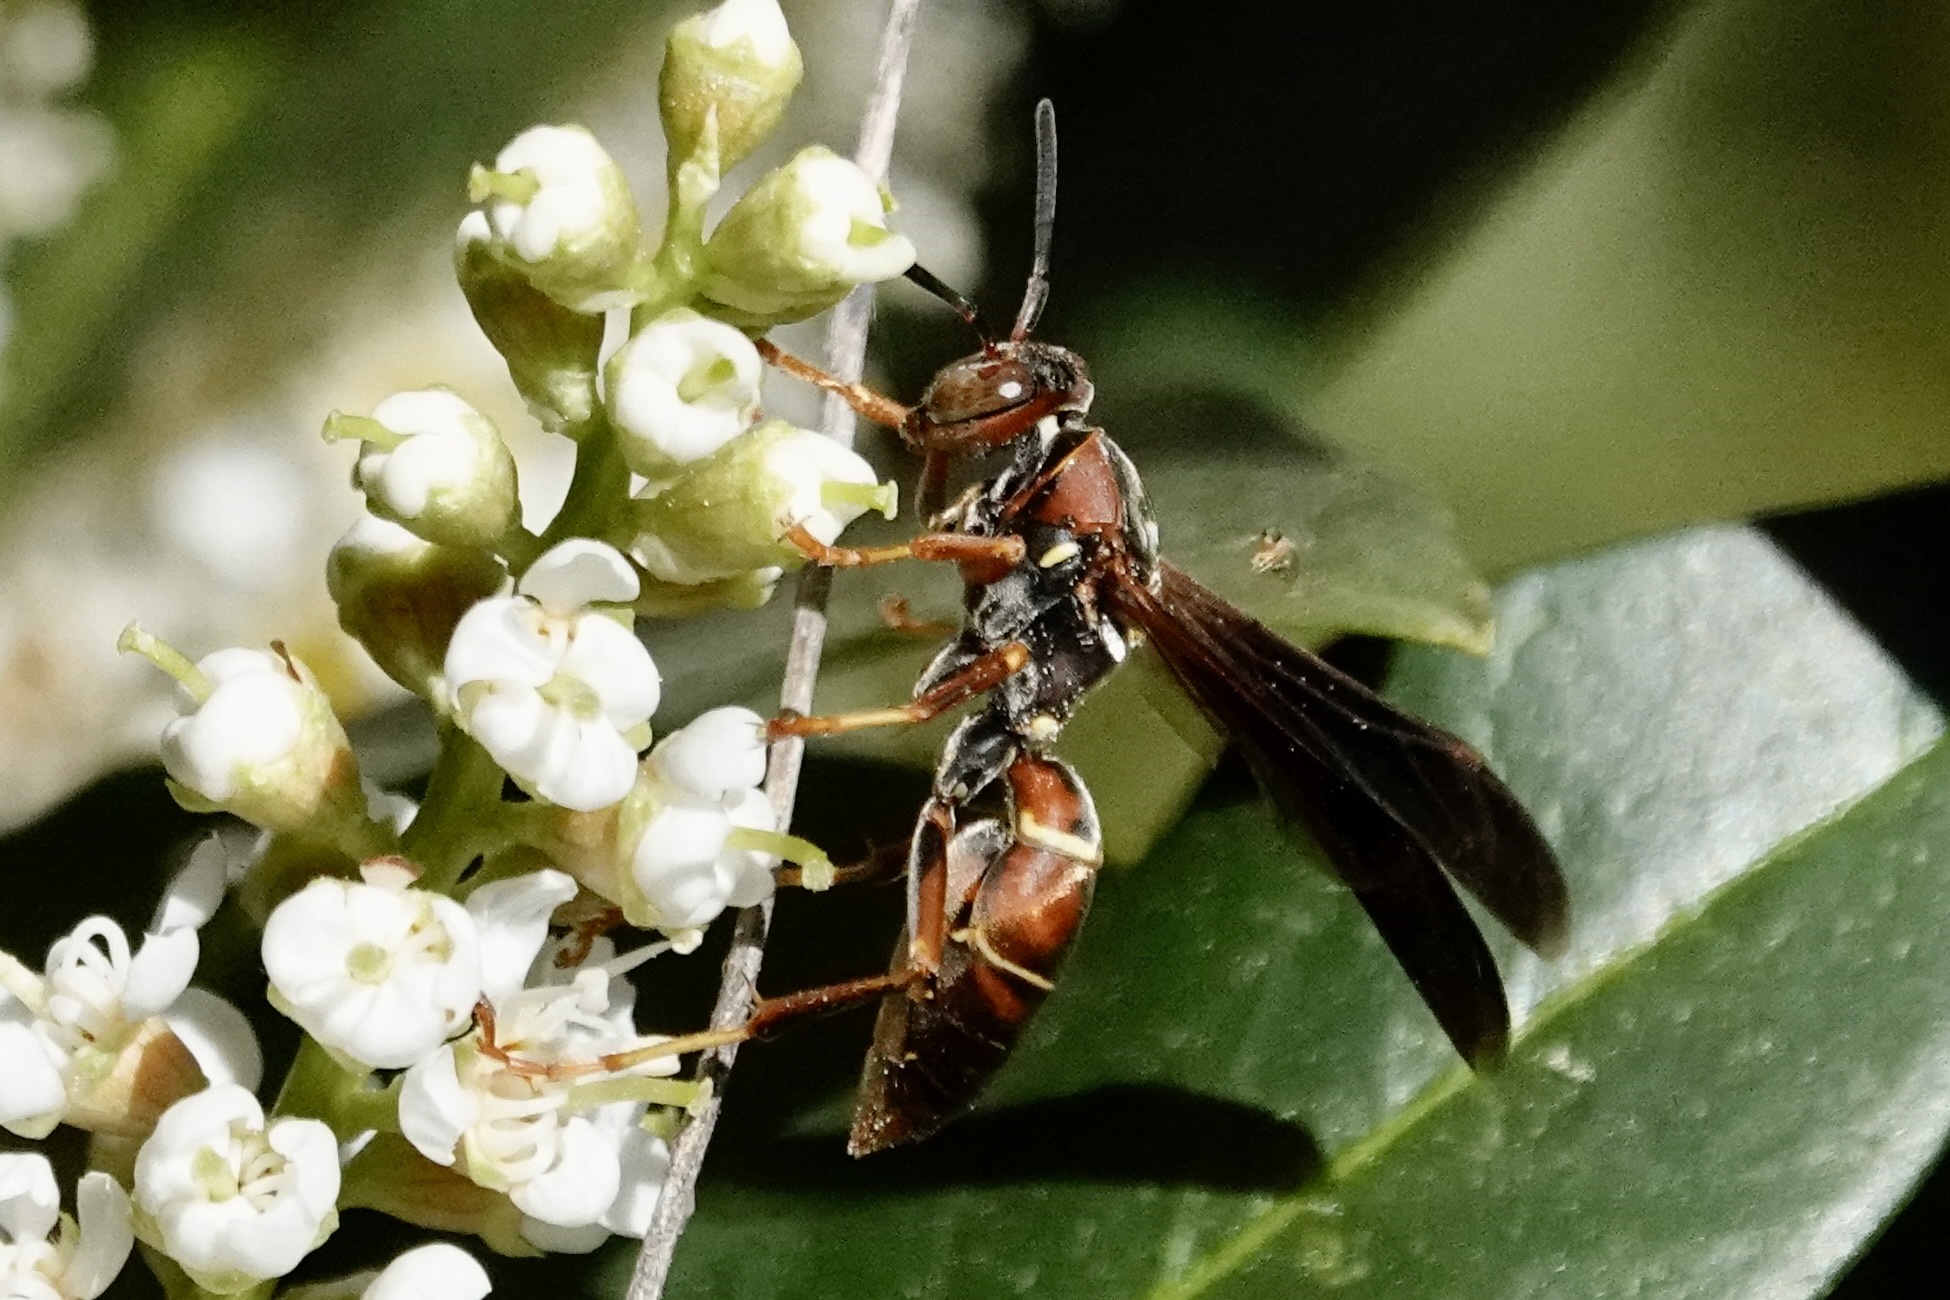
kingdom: Animalia
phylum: Arthropoda
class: Insecta
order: Hymenoptera
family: Eumenidae
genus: Polistes
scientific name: Polistes fuscatus
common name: Dark paper wasp
